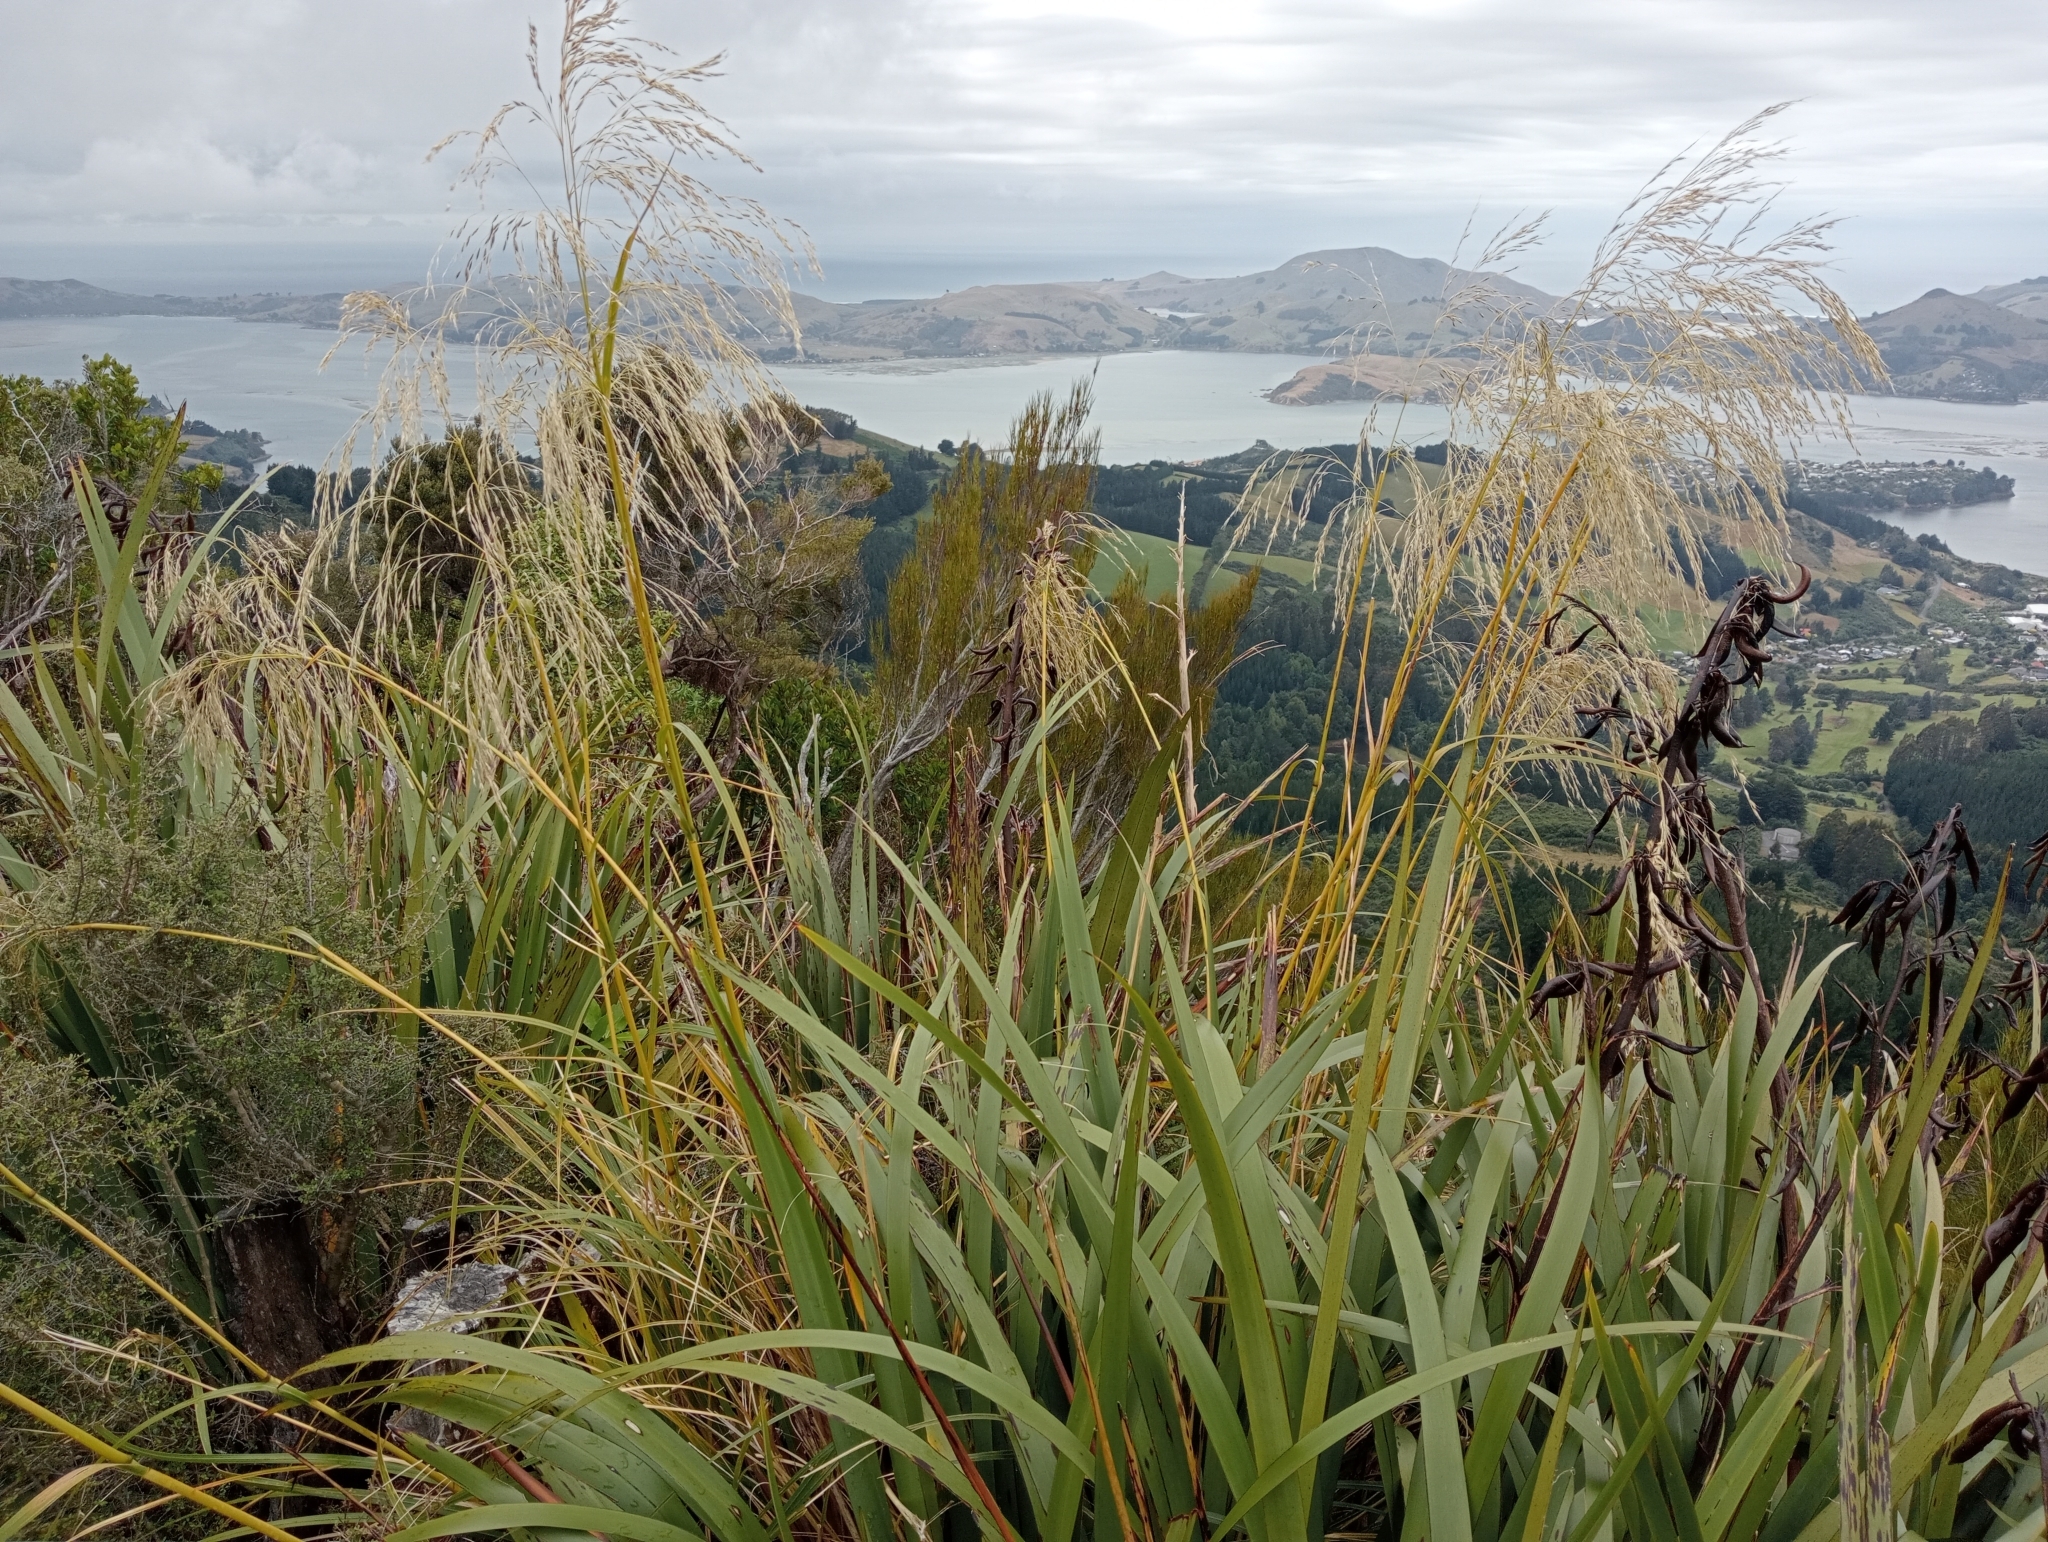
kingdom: Plantae
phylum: Tracheophyta
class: Liliopsida
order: Poales
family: Poaceae
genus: Chionochloa
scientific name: Chionochloa conspicua
